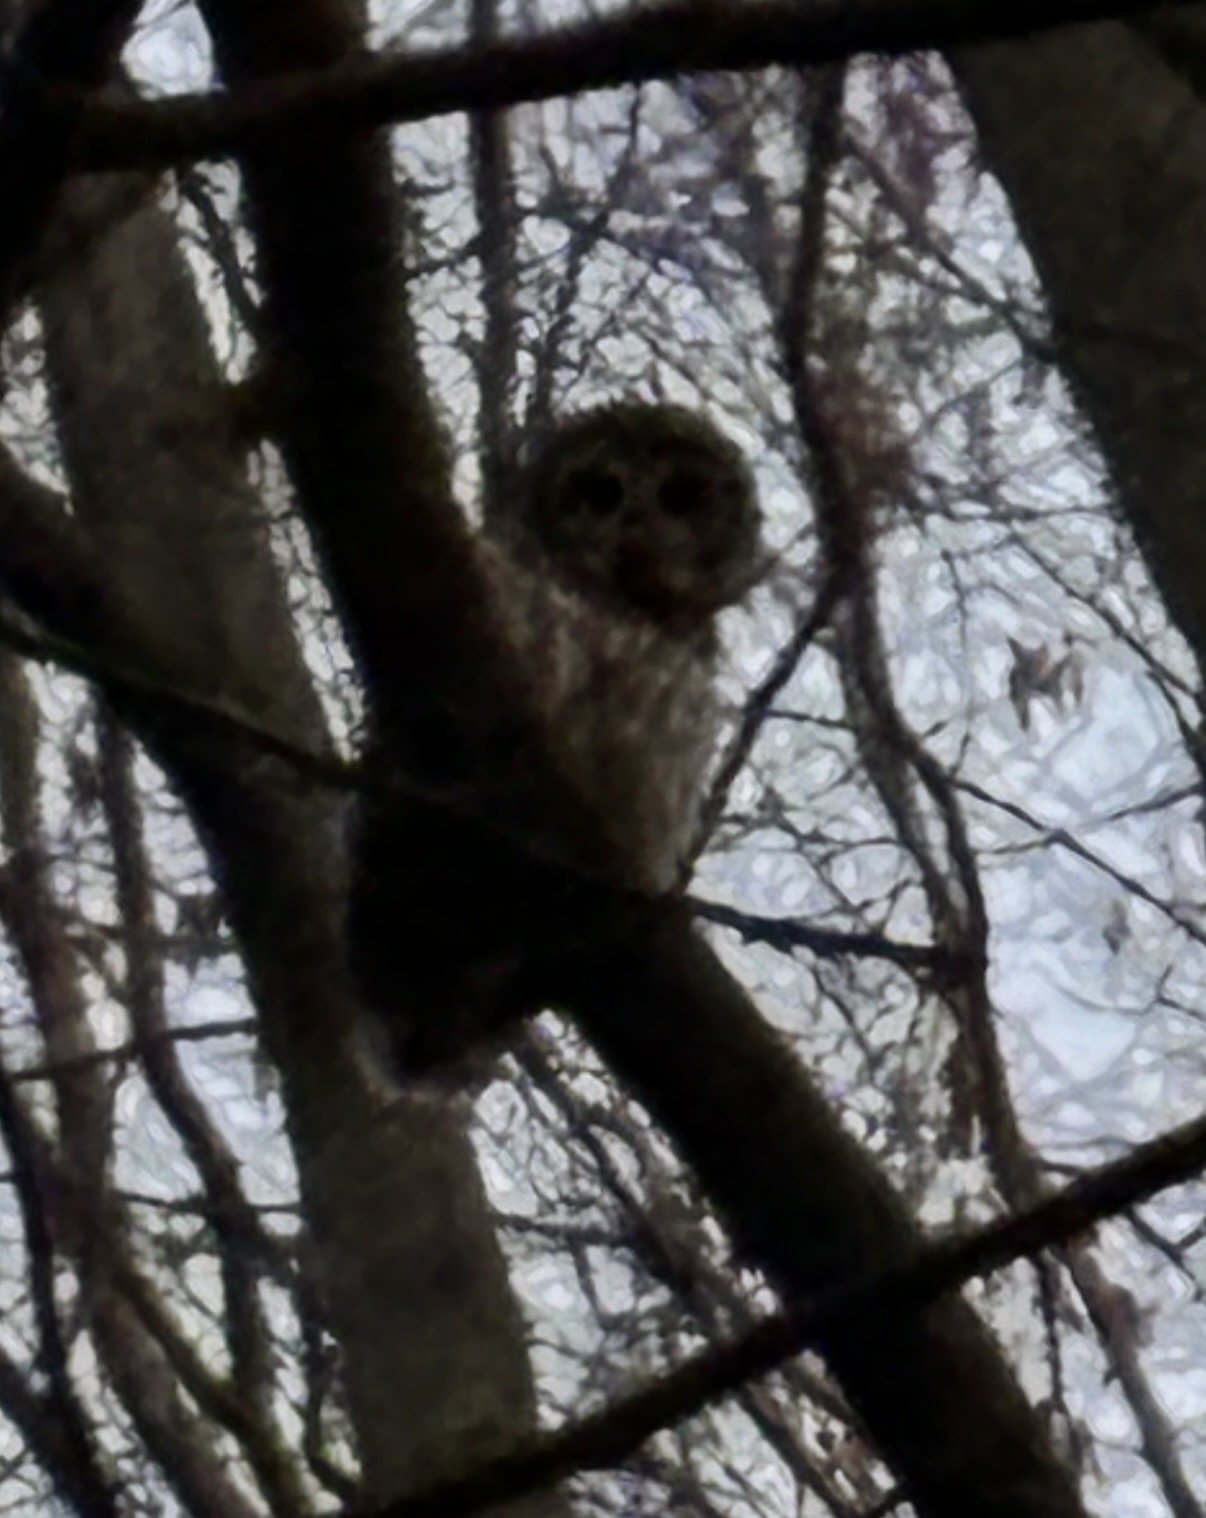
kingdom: Animalia
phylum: Chordata
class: Aves
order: Strigiformes
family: Strigidae
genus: Strix
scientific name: Strix varia
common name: Barred owl
